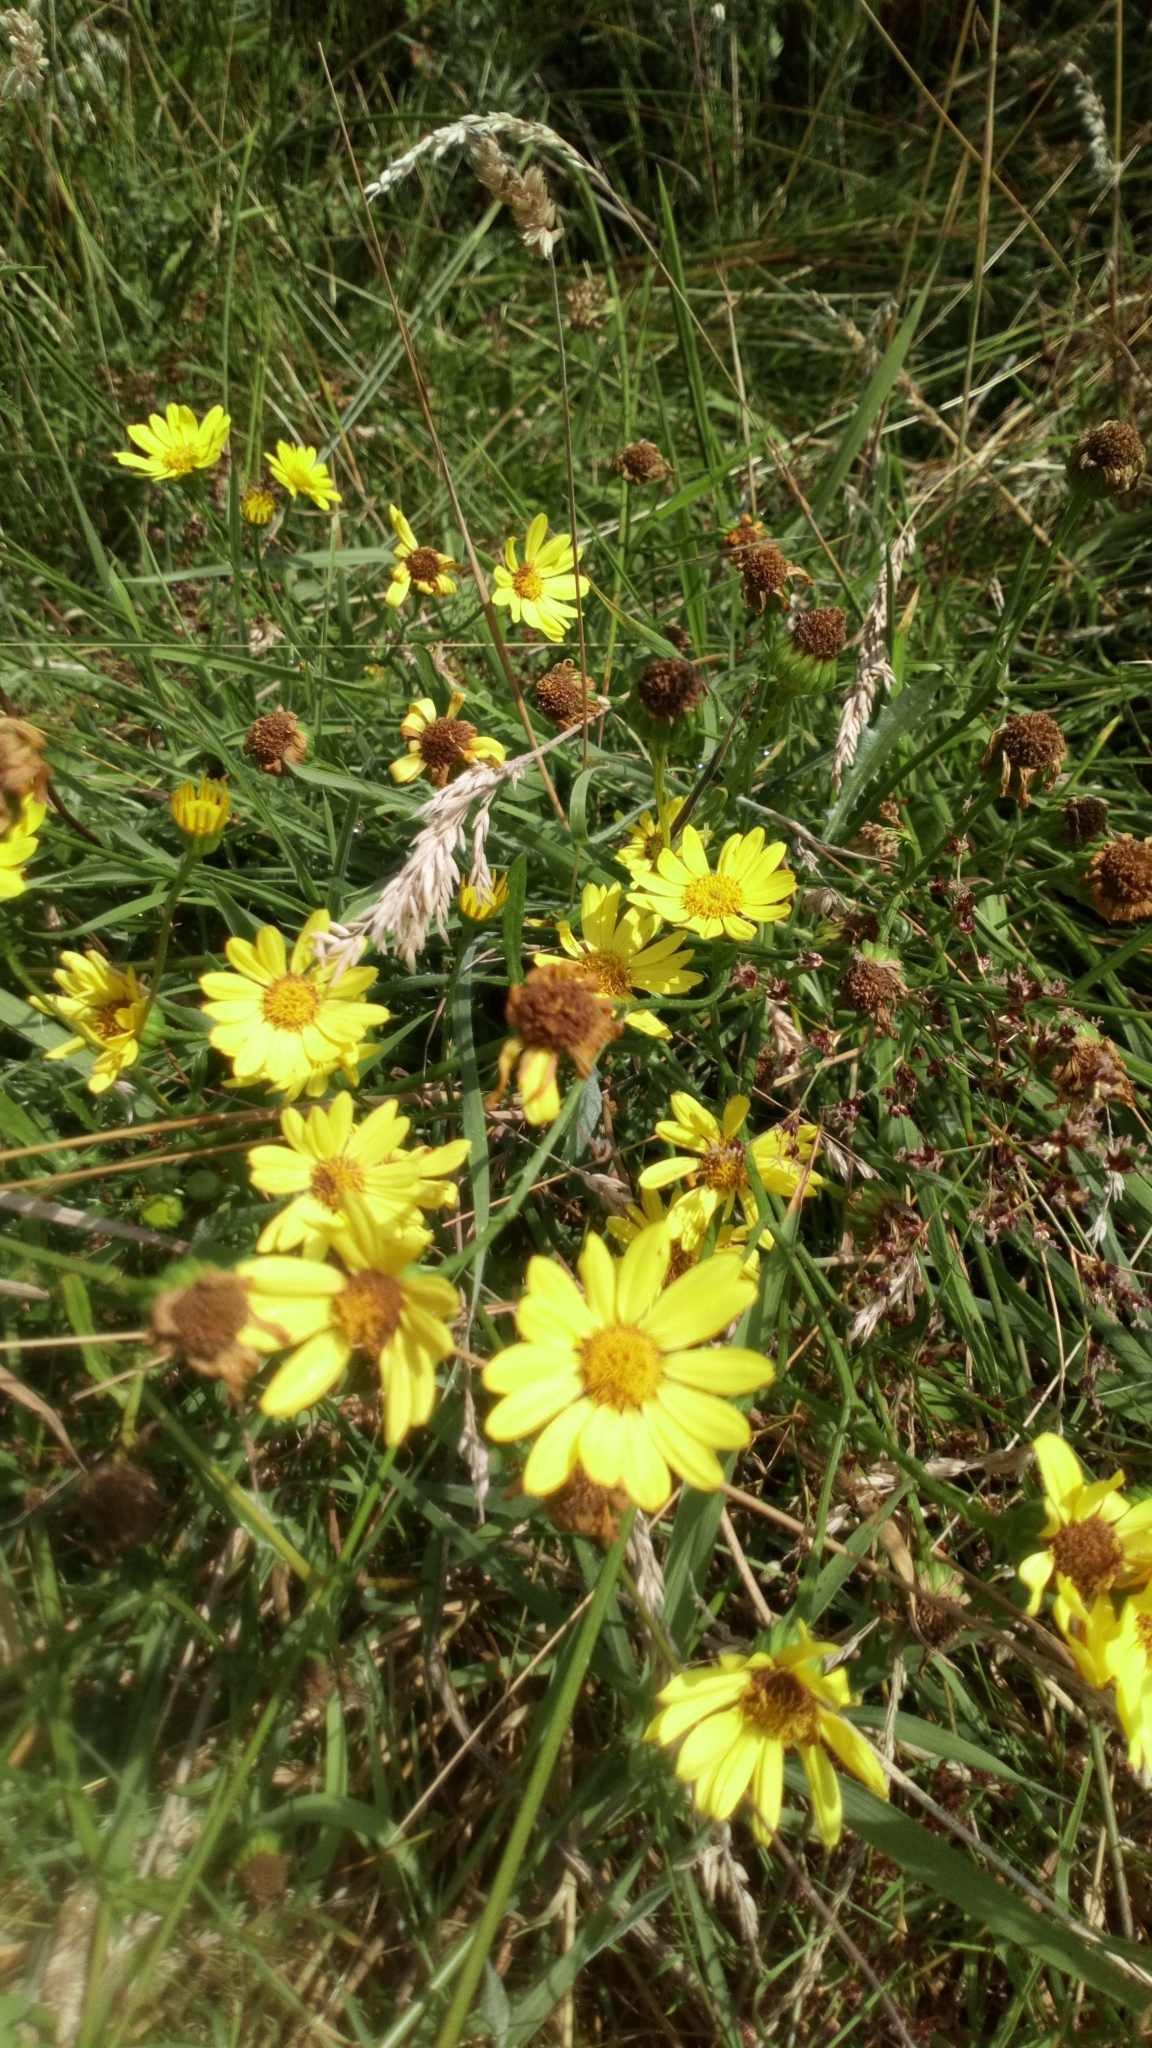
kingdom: Plantae
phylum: Tracheophyta
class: Magnoliopsida
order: Asterales
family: Asteraceae
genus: Jacobaea
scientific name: Jacobaea aquatica
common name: Water ragwort
